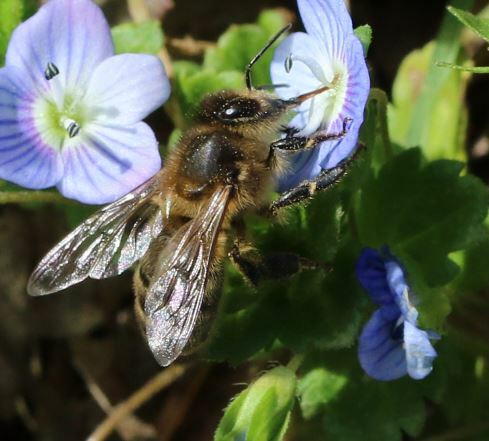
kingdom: Animalia
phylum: Arthropoda
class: Insecta
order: Hymenoptera
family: Apidae
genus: Apis
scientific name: Apis mellifera
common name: Honey bee
